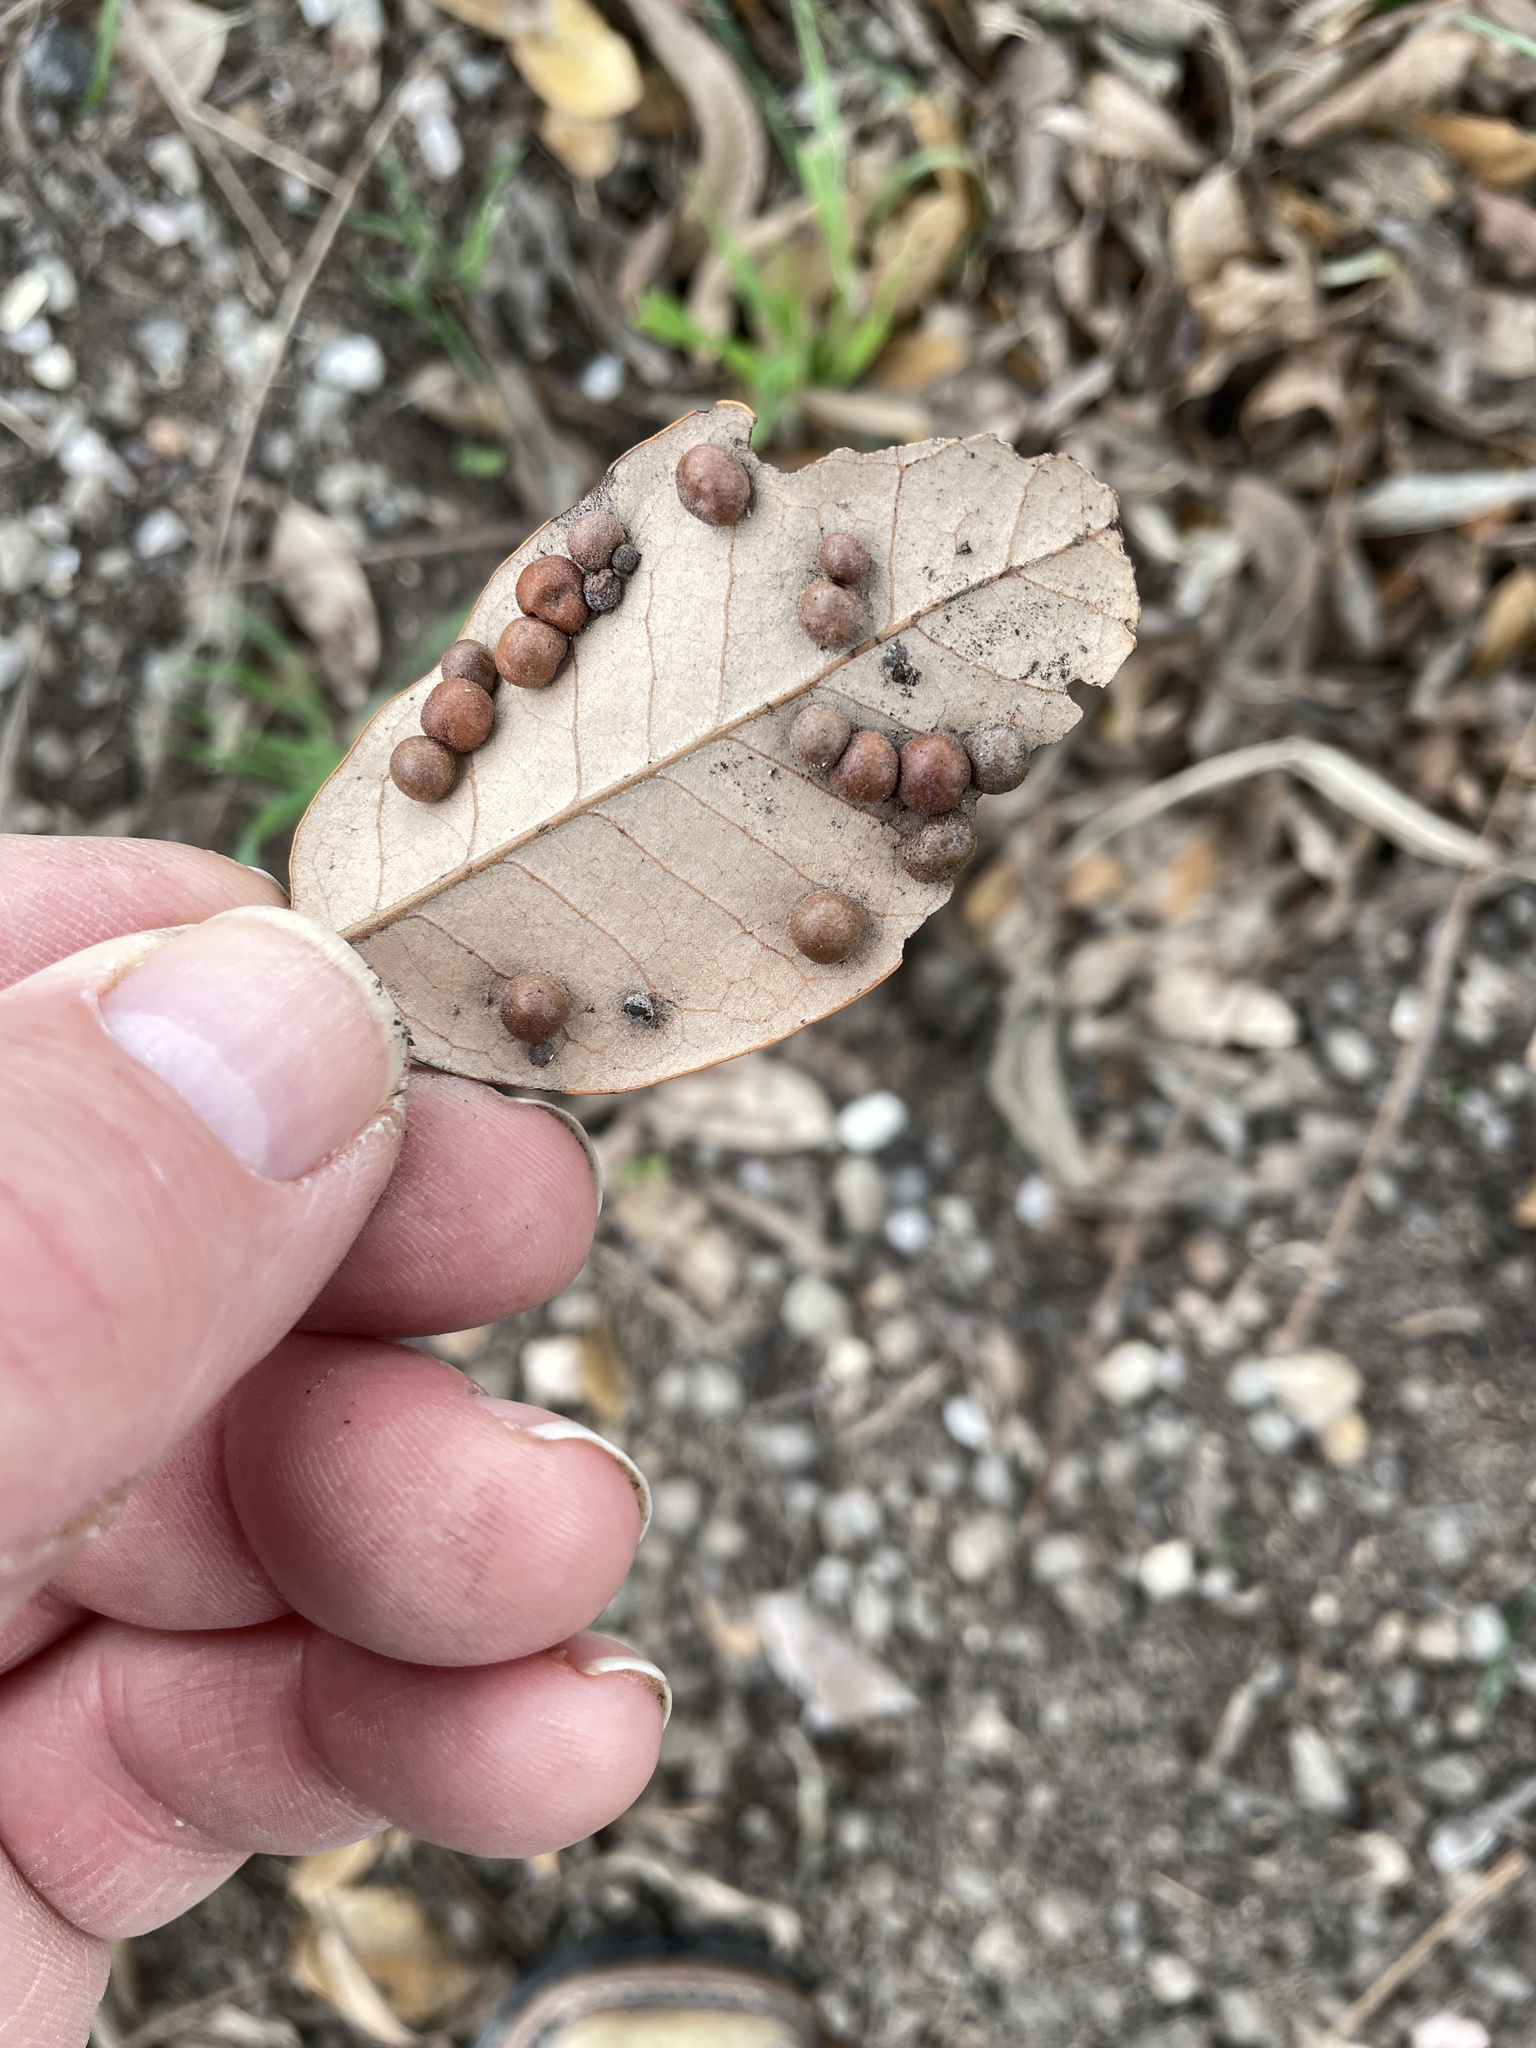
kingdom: Animalia
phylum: Arthropoda
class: Insecta
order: Hymenoptera
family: Cynipidae
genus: Belonocnema
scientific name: Belonocnema kinseyi
